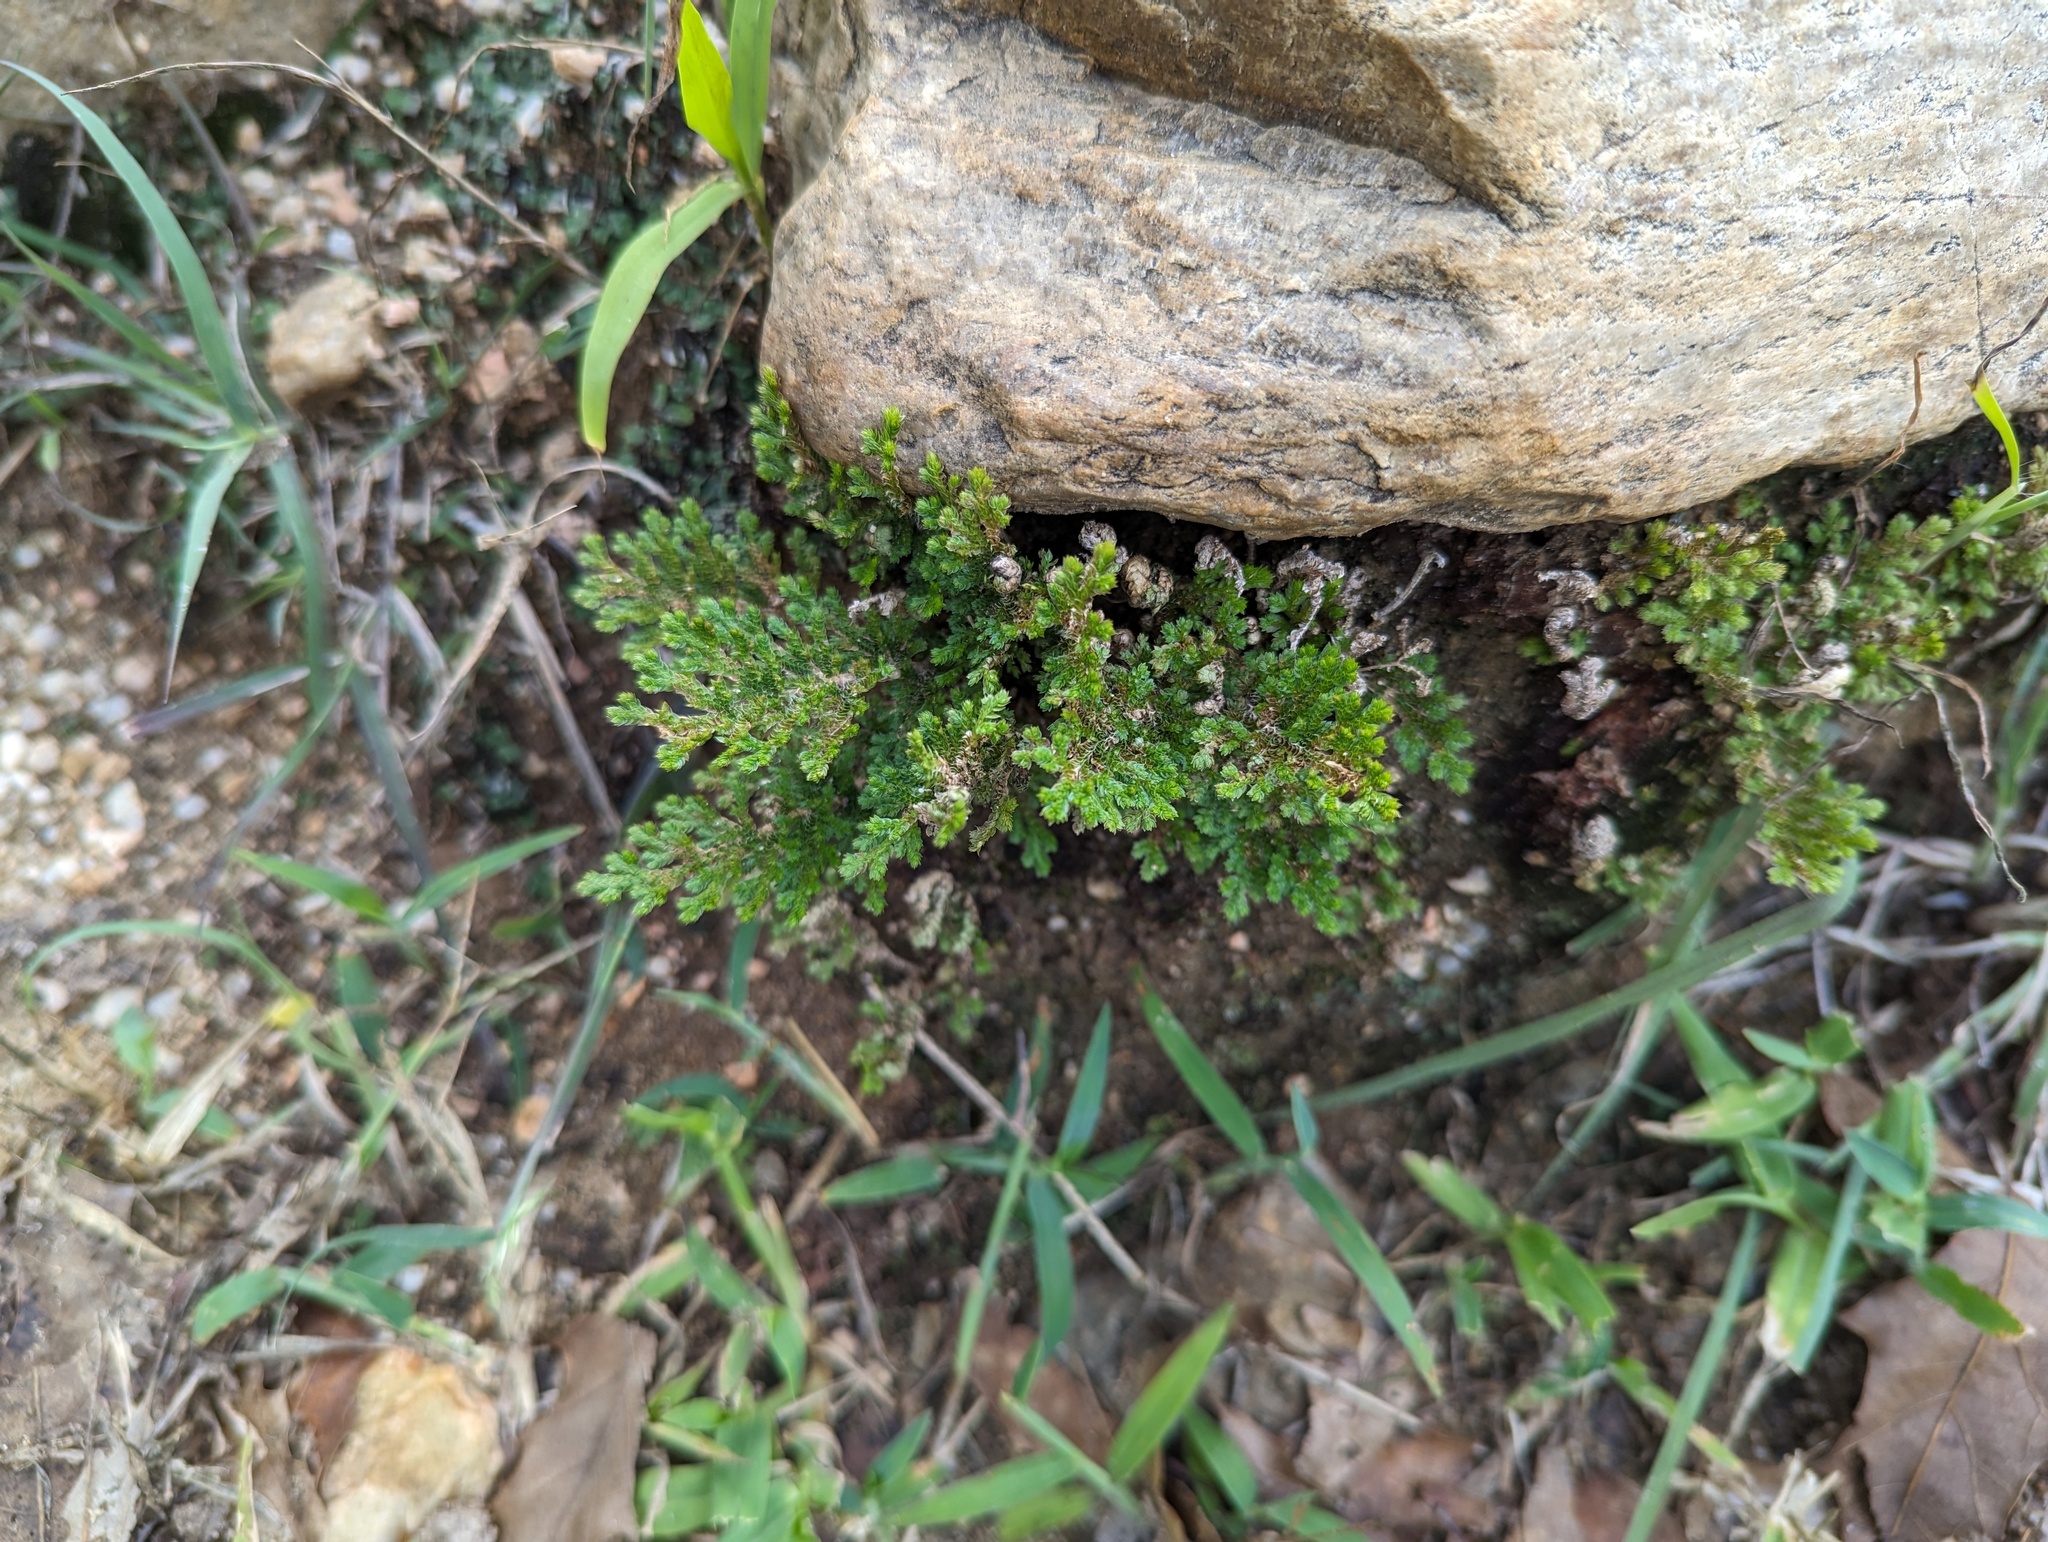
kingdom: Plantae
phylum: Tracheophyta
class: Lycopodiopsida
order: Selaginellales
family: Selaginellaceae
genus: Selaginella
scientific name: Selaginella pallescens
